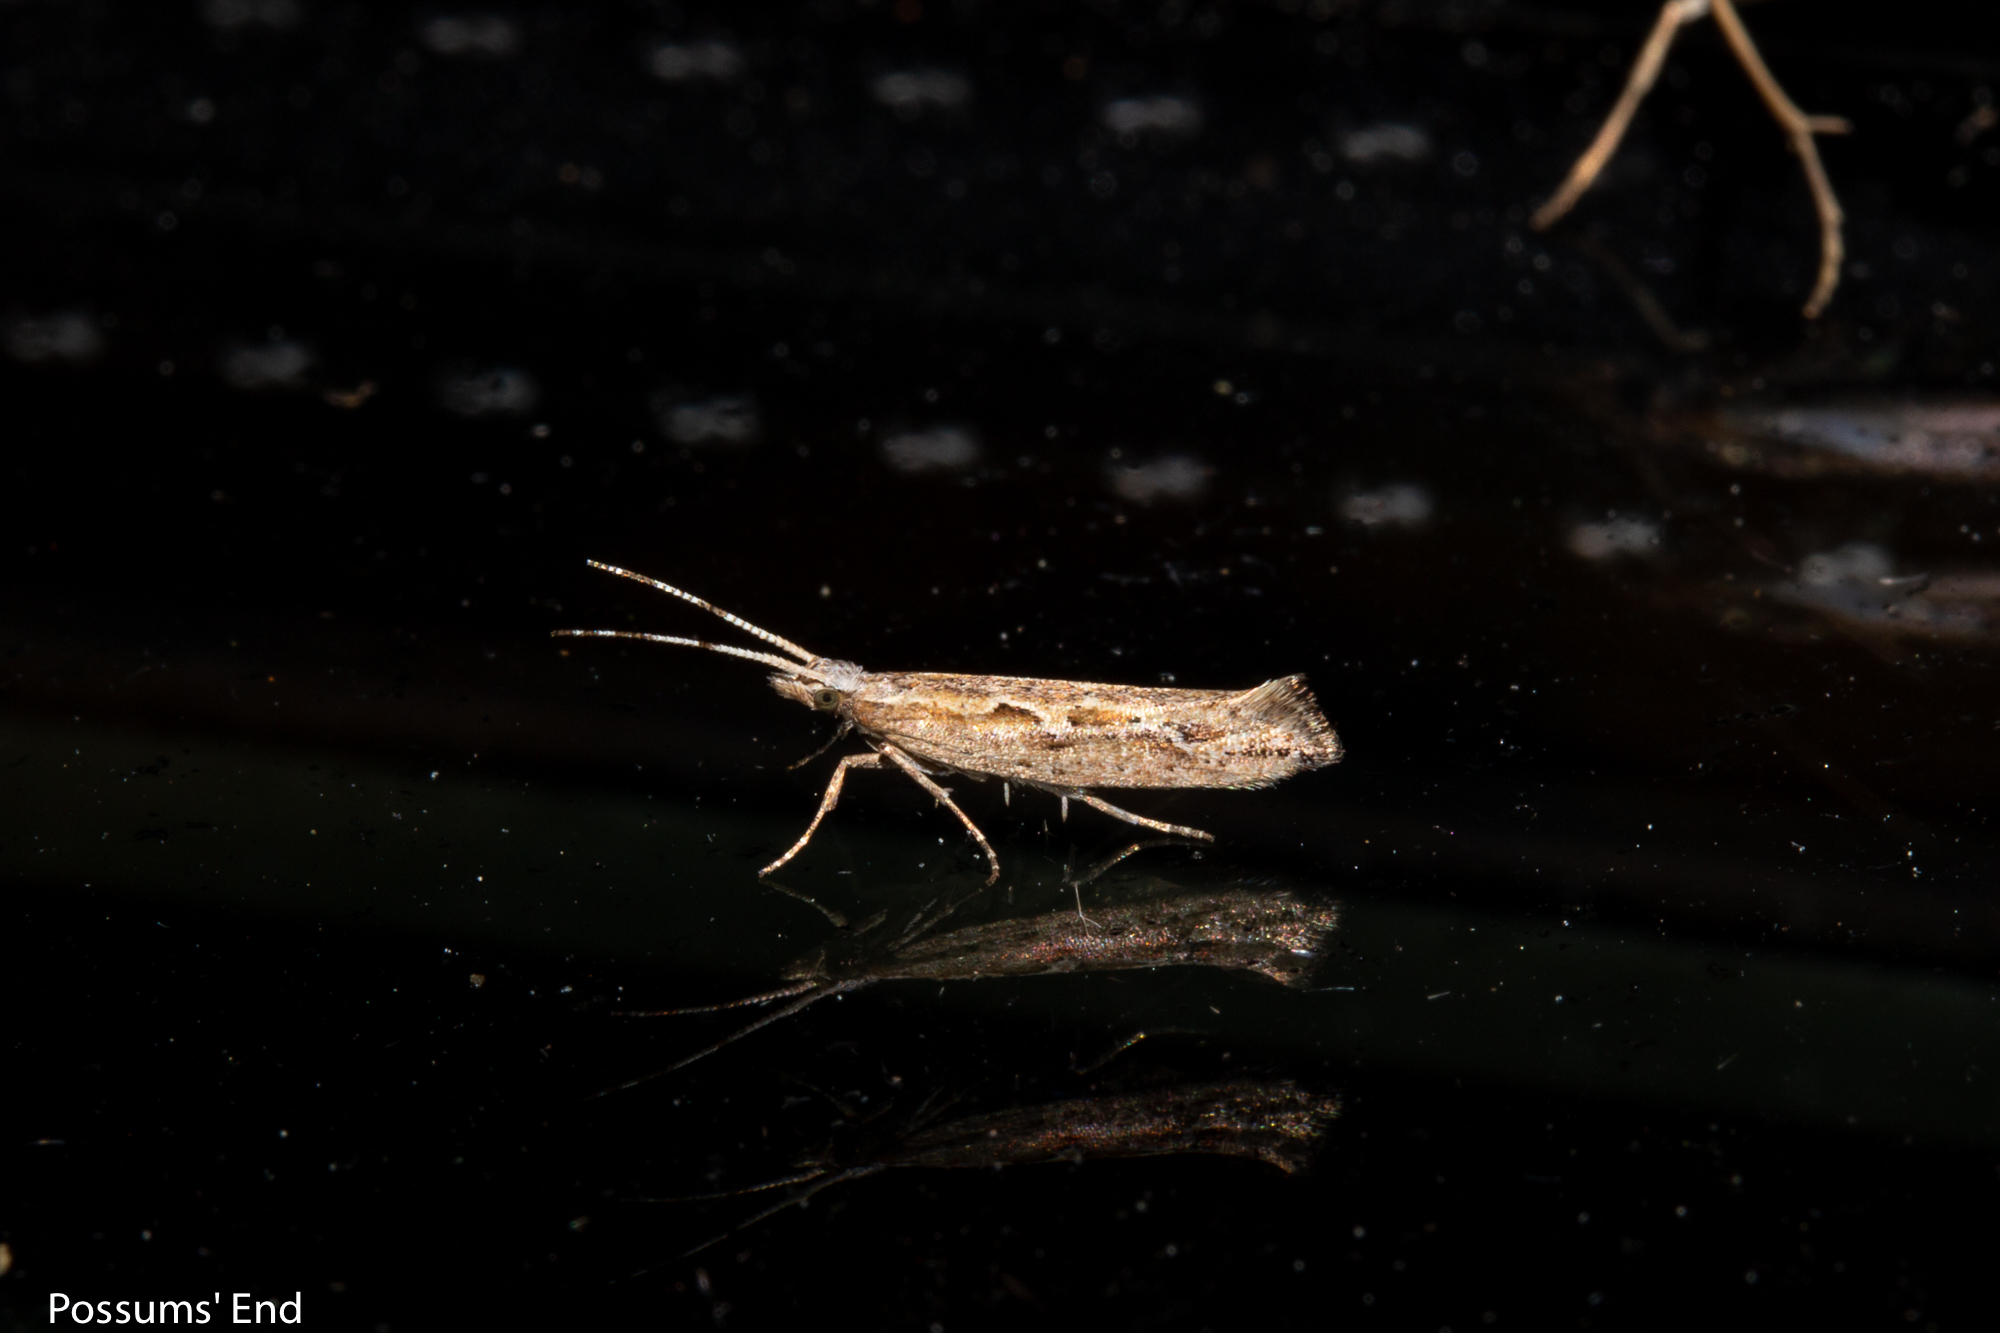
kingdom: Animalia
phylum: Arthropoda
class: Insecta
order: Lepidoptera
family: Plutellidae
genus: Plutella
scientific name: Plutella xylostella
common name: Diamond-back moth
